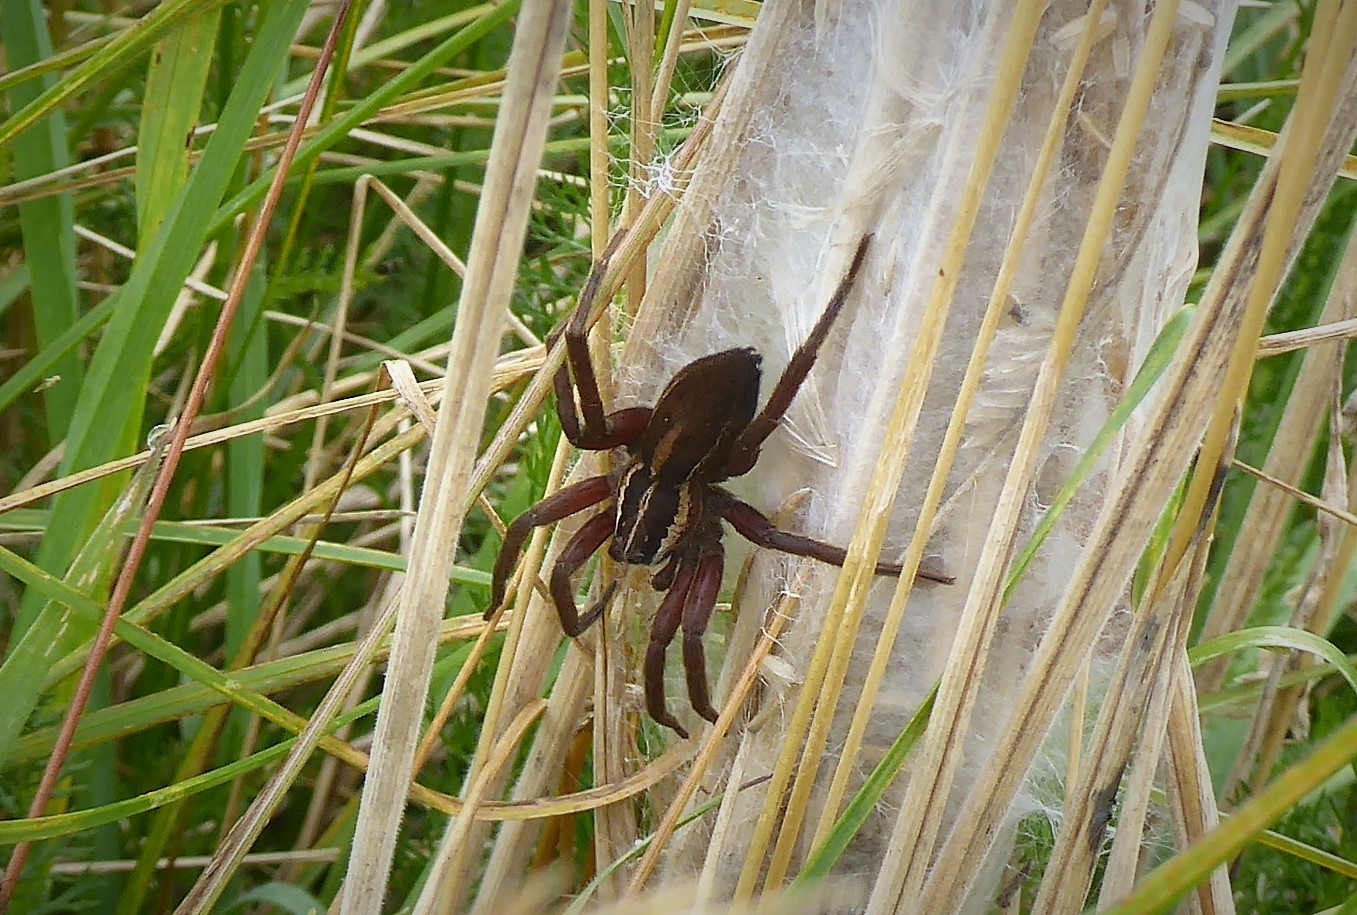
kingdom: Animalia
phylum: Arthropoda
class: Arachnida
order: Araneae
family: Pisauridae
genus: Dolomedes
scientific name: Dolomedes minor
